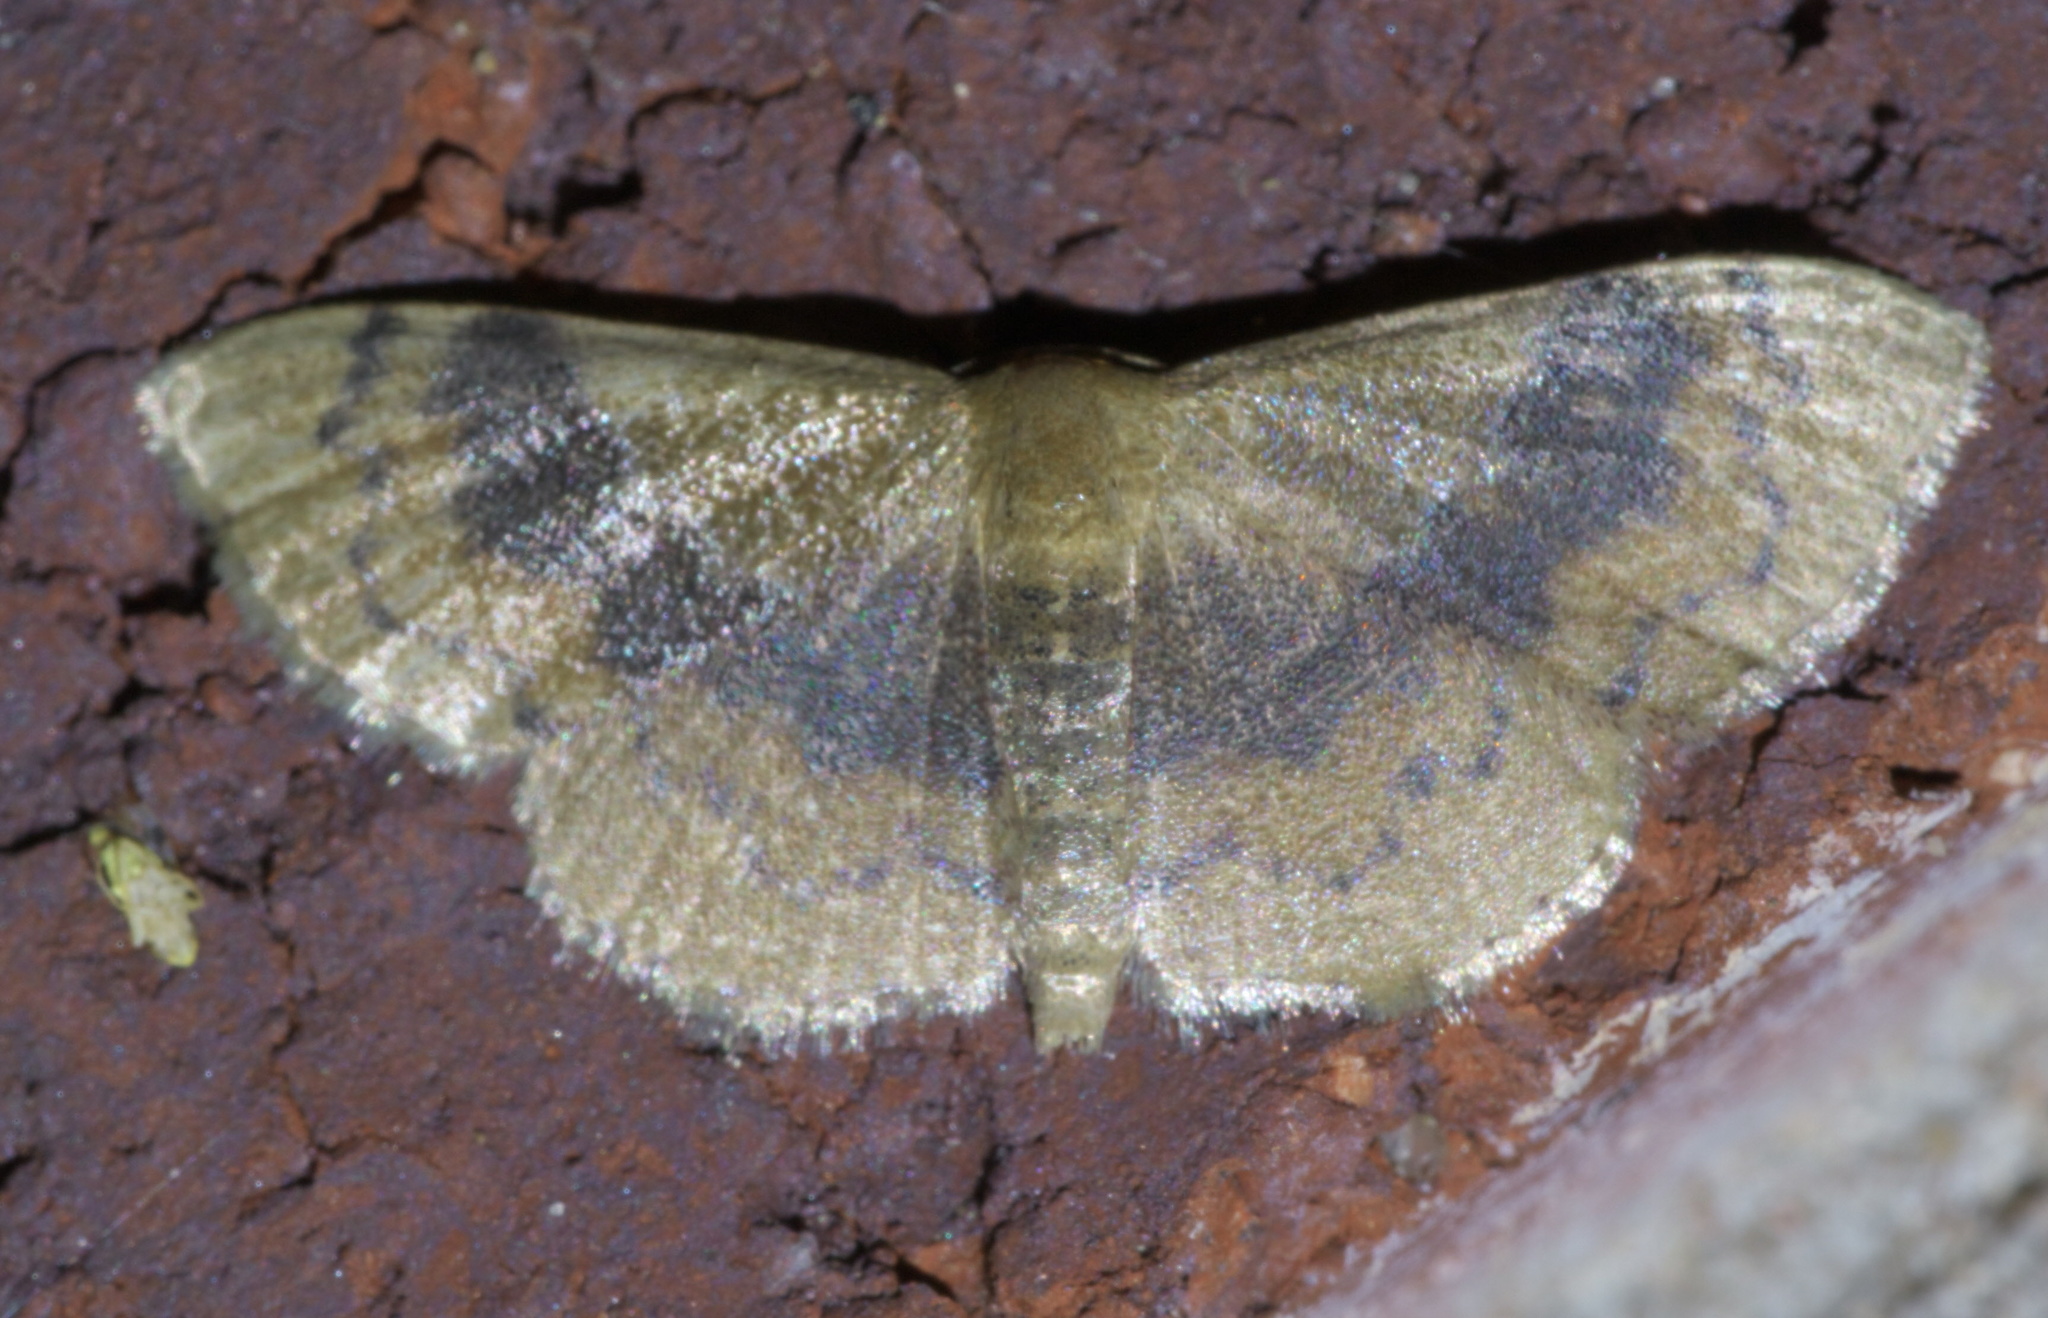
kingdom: Animalia
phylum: Arthropoda
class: Insecta
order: Lepidoptera
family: Geometridae
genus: Leptostales
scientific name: Leptostales ferruminaria
